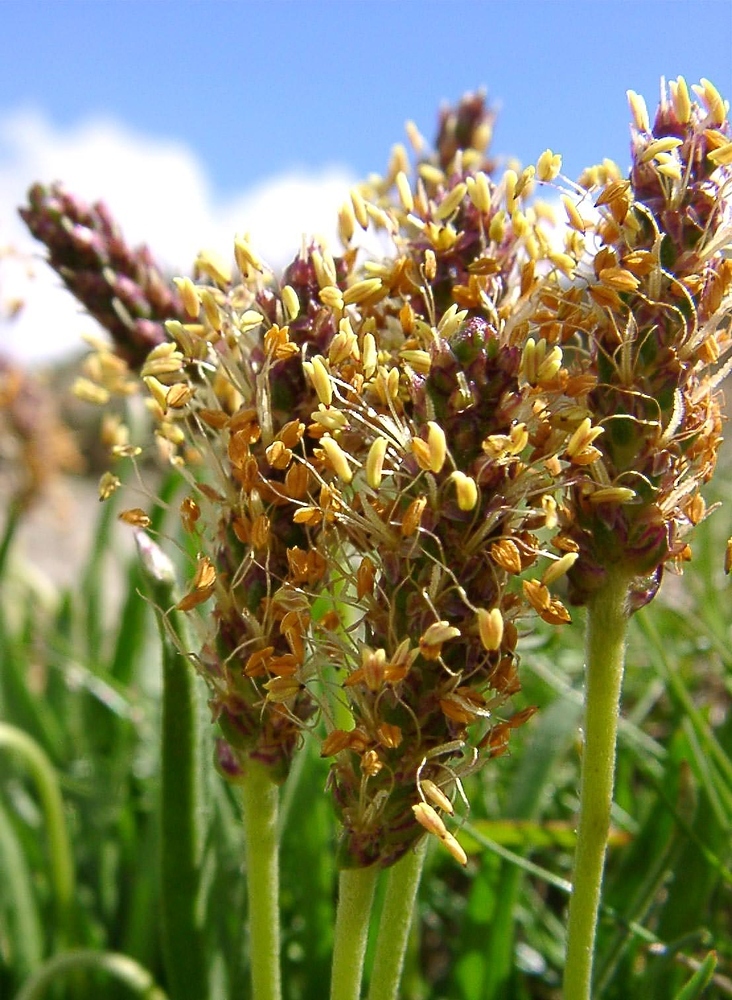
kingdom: Plantae
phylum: Tracheophyta
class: Magnoliopsida
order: Lamiales
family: Plantaginaceae
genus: Plantago
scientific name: Plantago maritima
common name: Sea plantain
